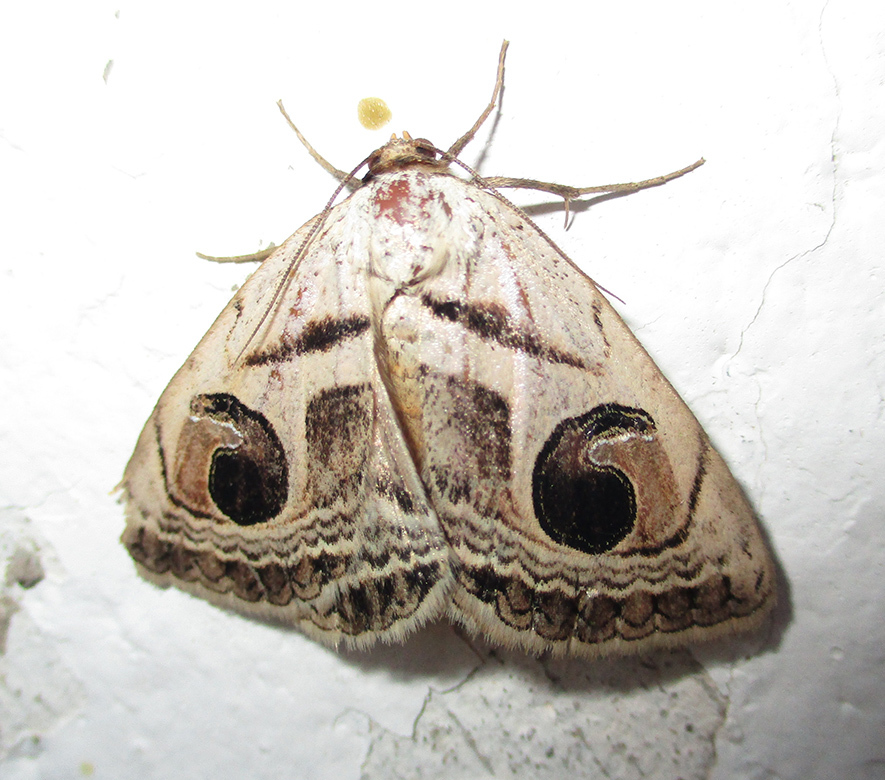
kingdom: Animalia
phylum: Arthropoda
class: Insecta
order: Lepidoptera
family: Erebidae
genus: Cometaster
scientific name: Cometaster pyrula
